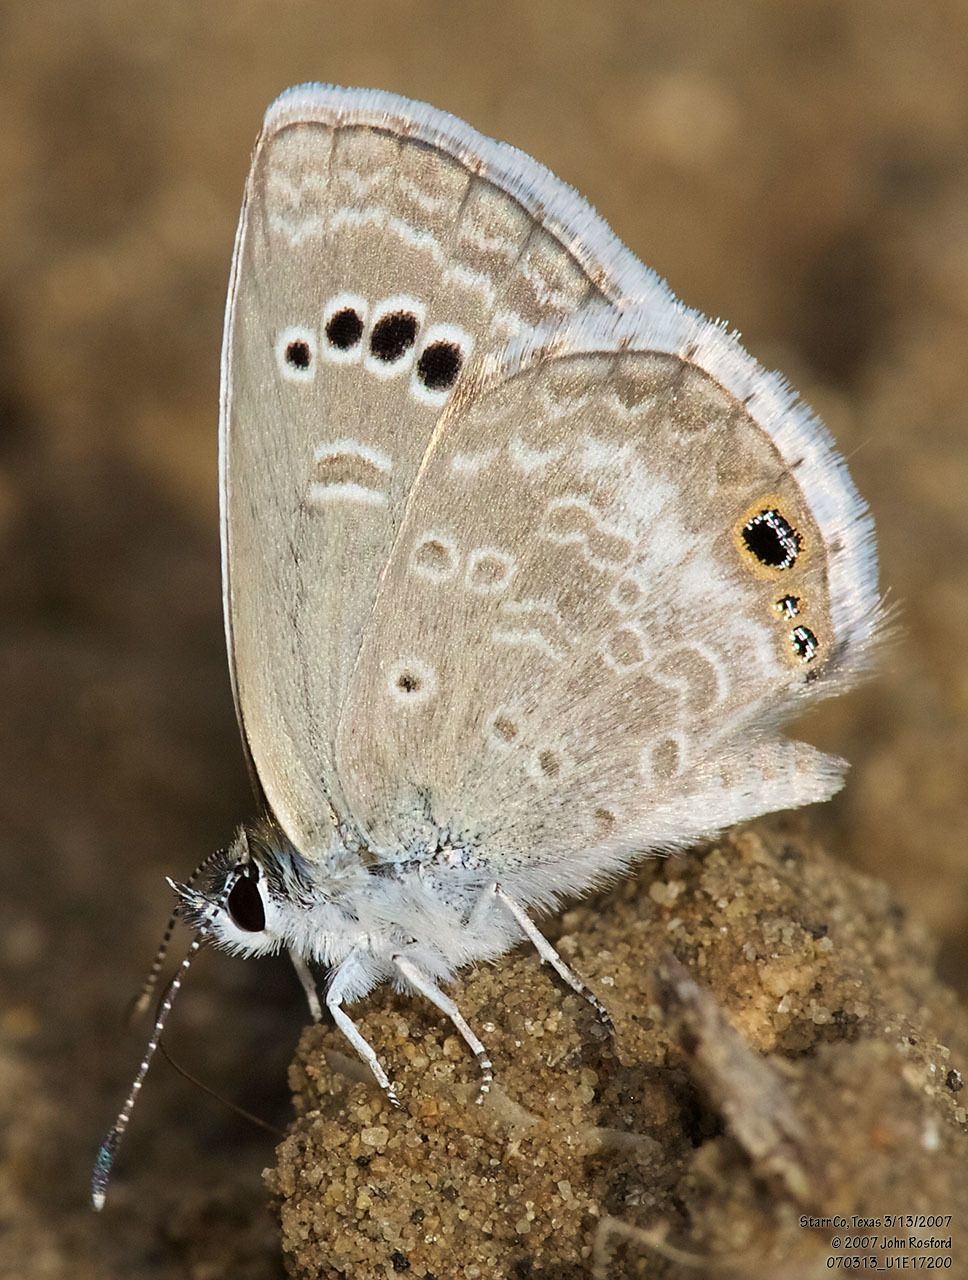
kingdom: Animalia
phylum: Arthropoda
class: Insecta
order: Lepidoptera
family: Lycaenidae
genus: Echinargus
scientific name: Echinargus isola
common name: Reakirt's blue
